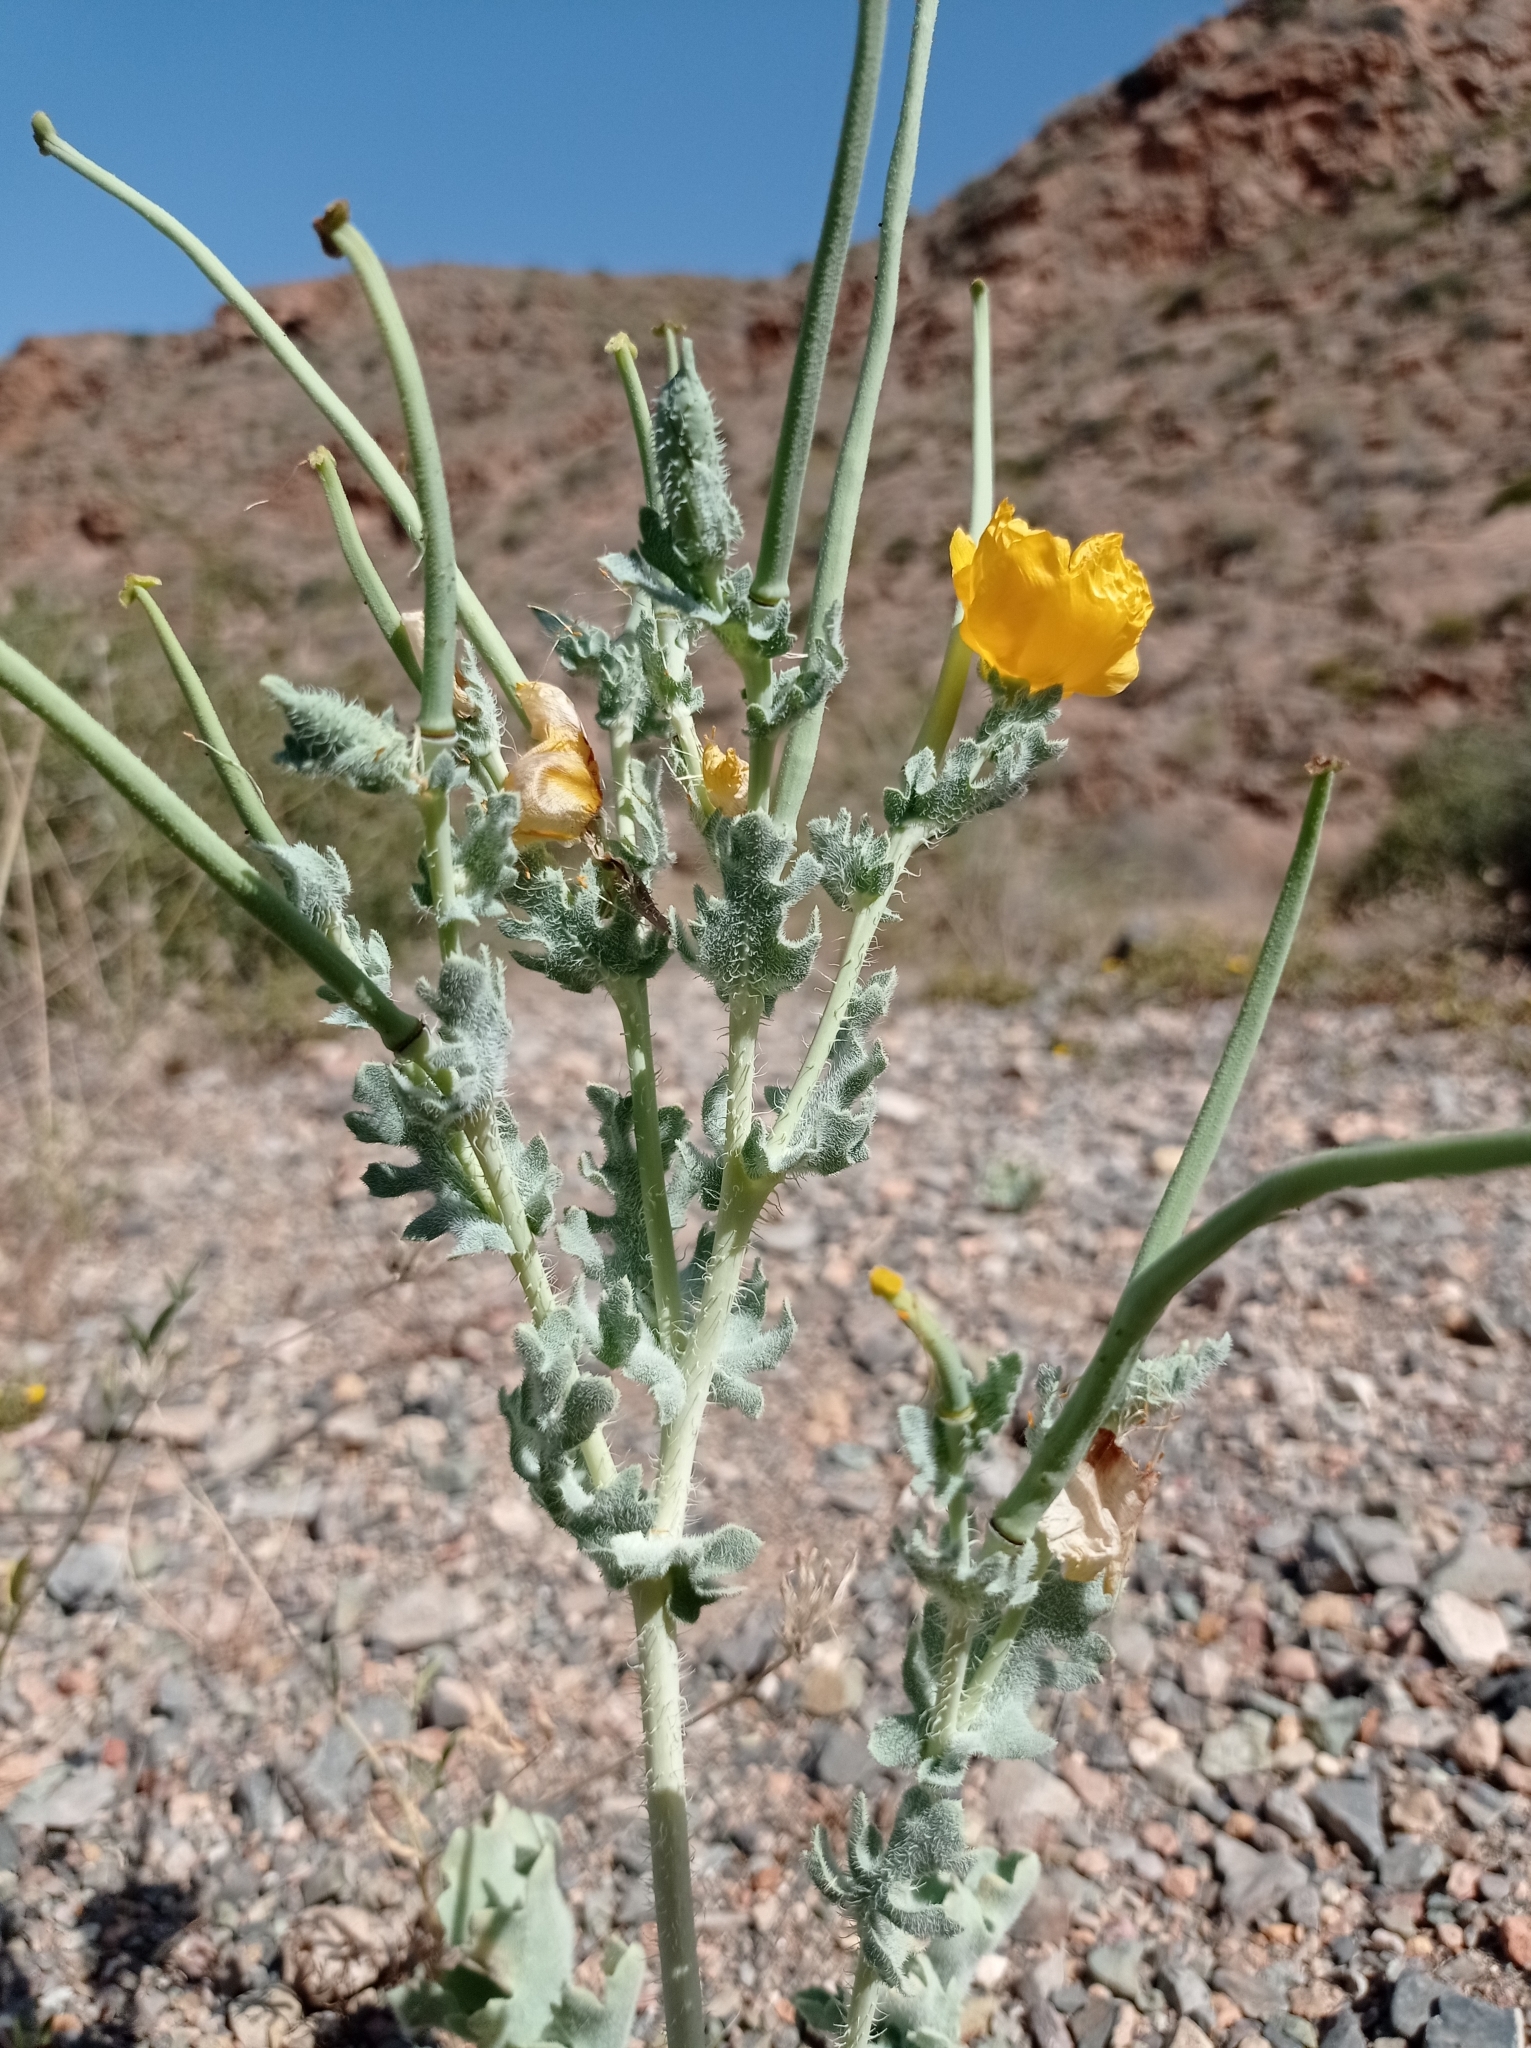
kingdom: Plantae
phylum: Tracheophyta
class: Magnoliopsida
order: Ranunculales
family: Papaveraceae
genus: Glaucium
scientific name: Glaucium flavum
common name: Yellow horned-poppy
